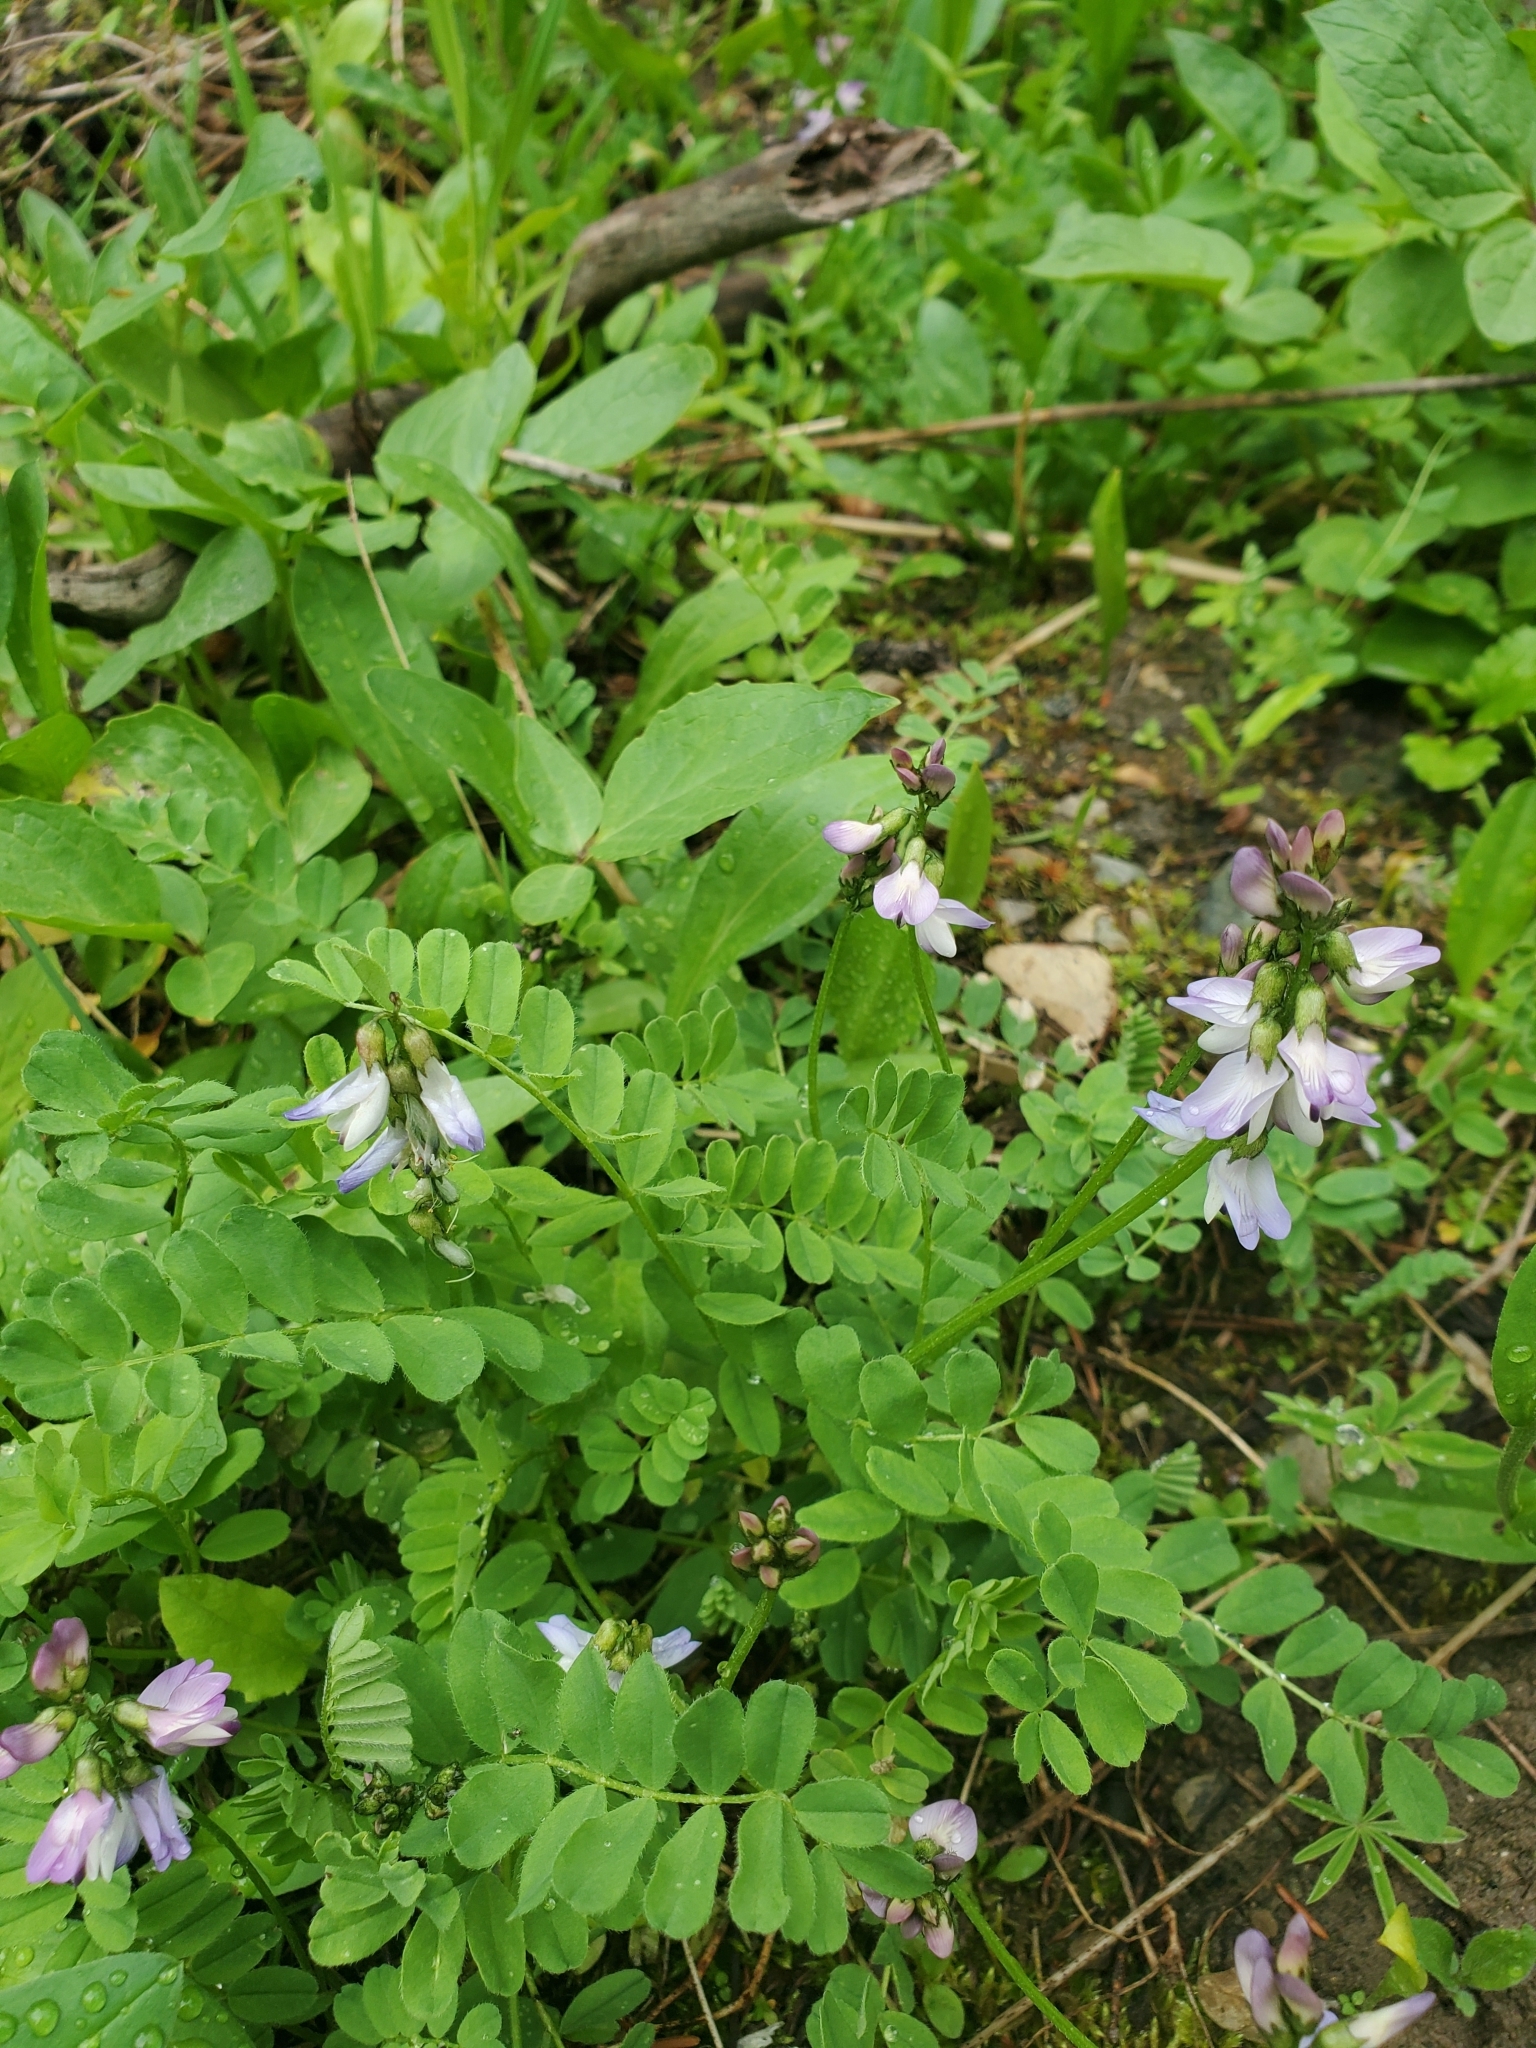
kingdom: Plantae
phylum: Tracheophyta
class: Magnoliopsida
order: Fabales
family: Fabaceae
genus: Astragalus
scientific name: Astragalus alpinus
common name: Alpine milk-vetch
